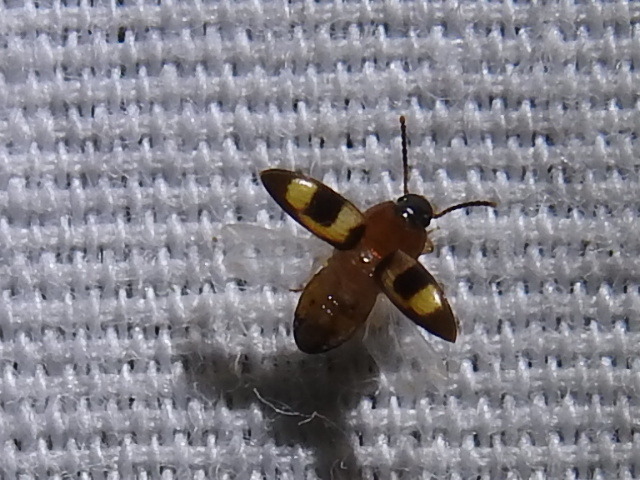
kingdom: Animalia
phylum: Arthropoda
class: Insecta
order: Coleoptera
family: Tenebrionidae
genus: Poecilocrypticus
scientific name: Poecilocrypticus formicophilus
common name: Darkling beetle
